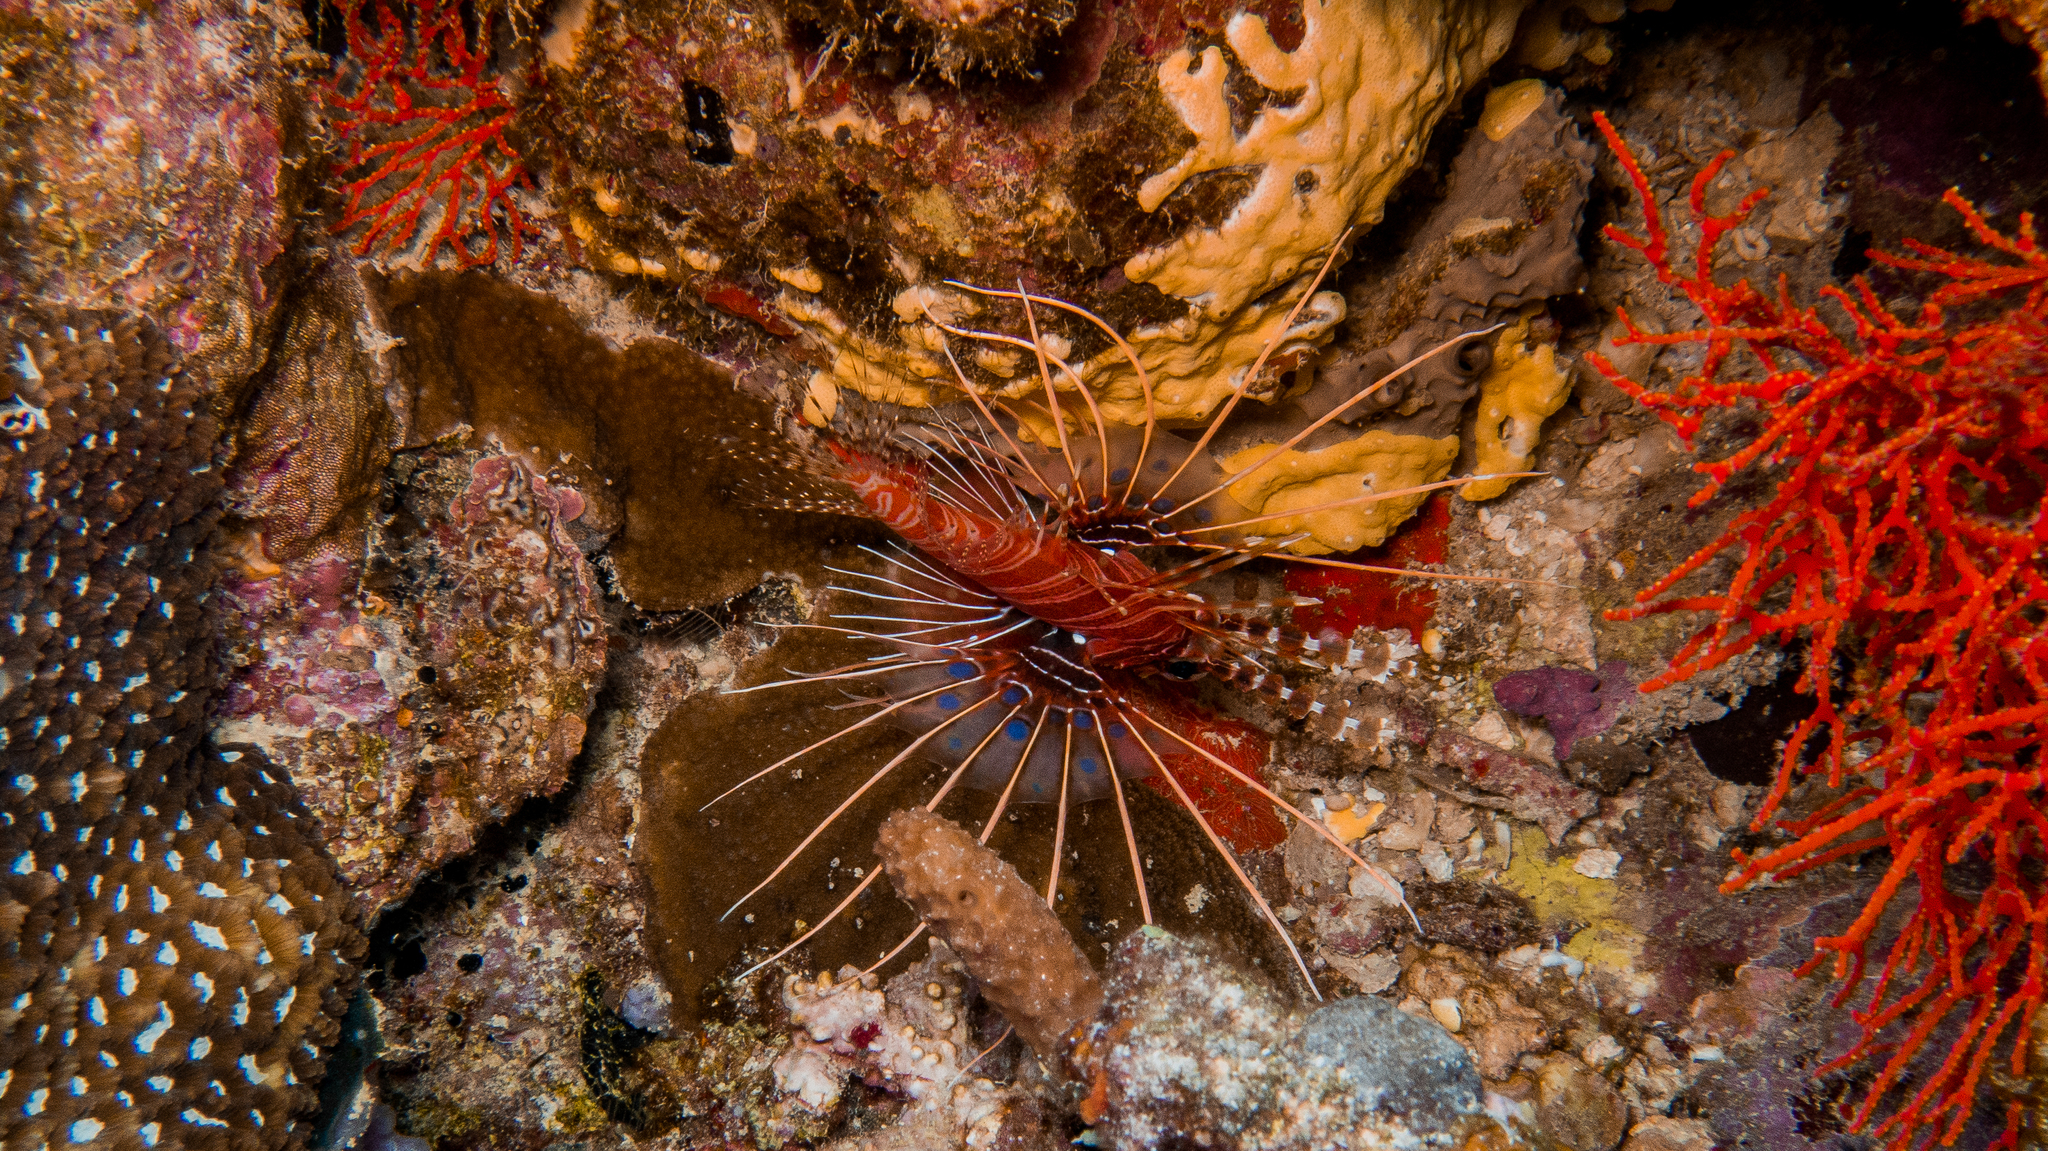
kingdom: Animalia
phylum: Chordata
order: Scorpaeniformes
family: Scorpaenidae
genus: Pterois
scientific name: Pterois antennata
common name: Spotfin lionfish
